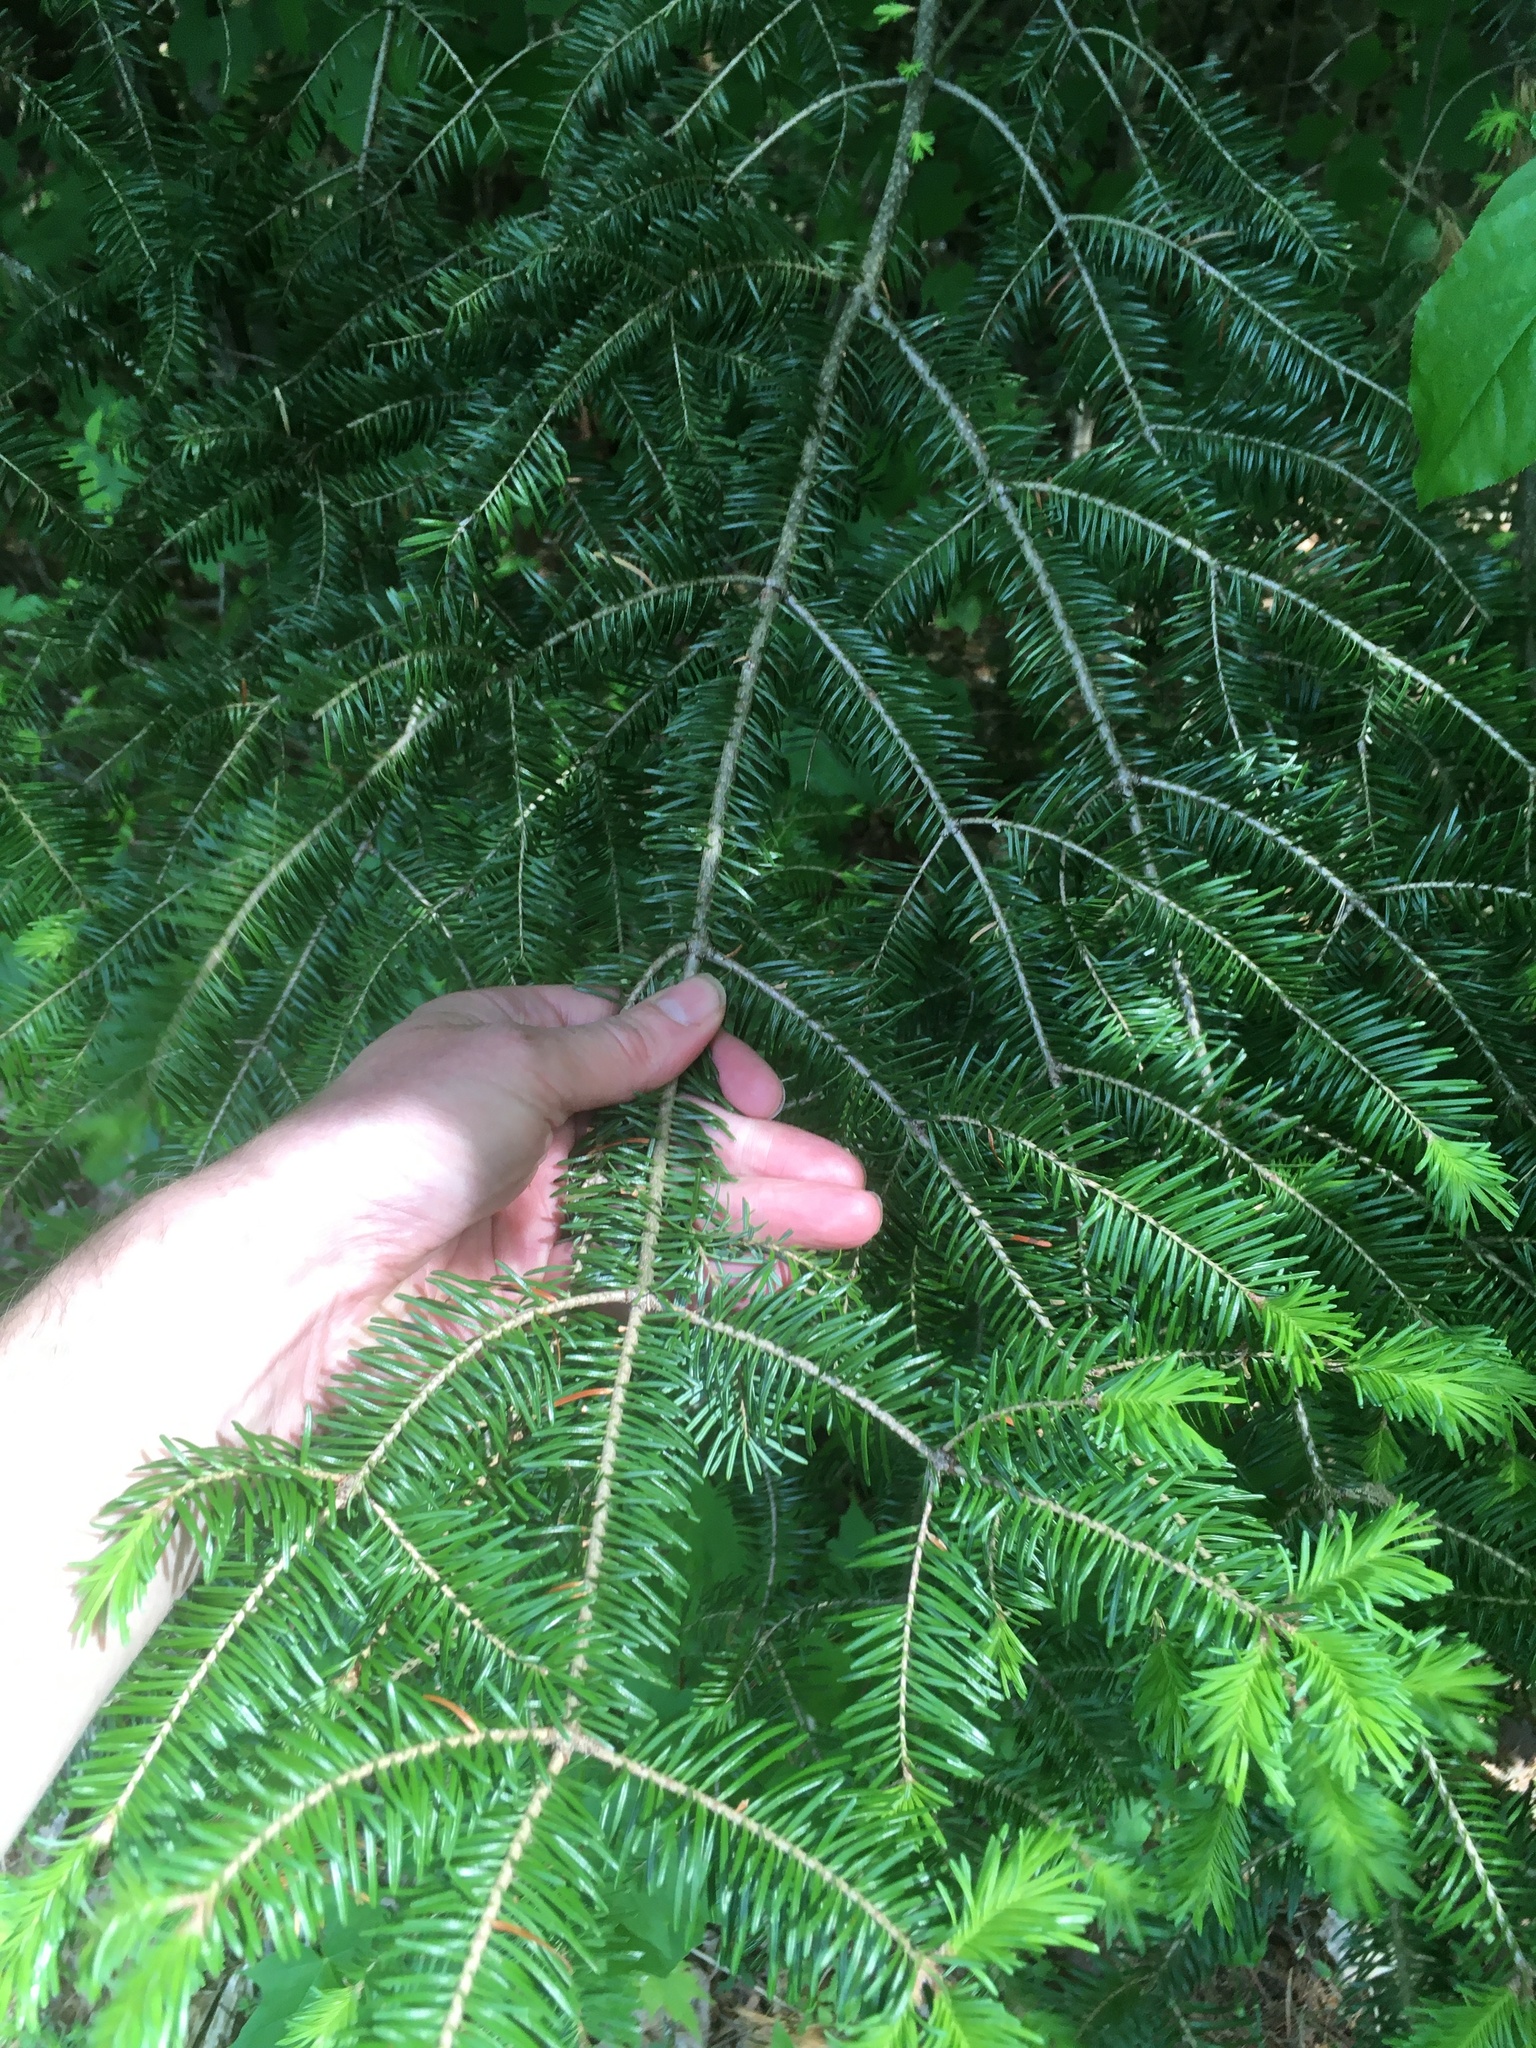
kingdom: Plantae
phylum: Tracheophyta
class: Pinopsida
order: Pinales
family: Pinaceae
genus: Abies
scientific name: Abies balsamea
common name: Balsam fir
